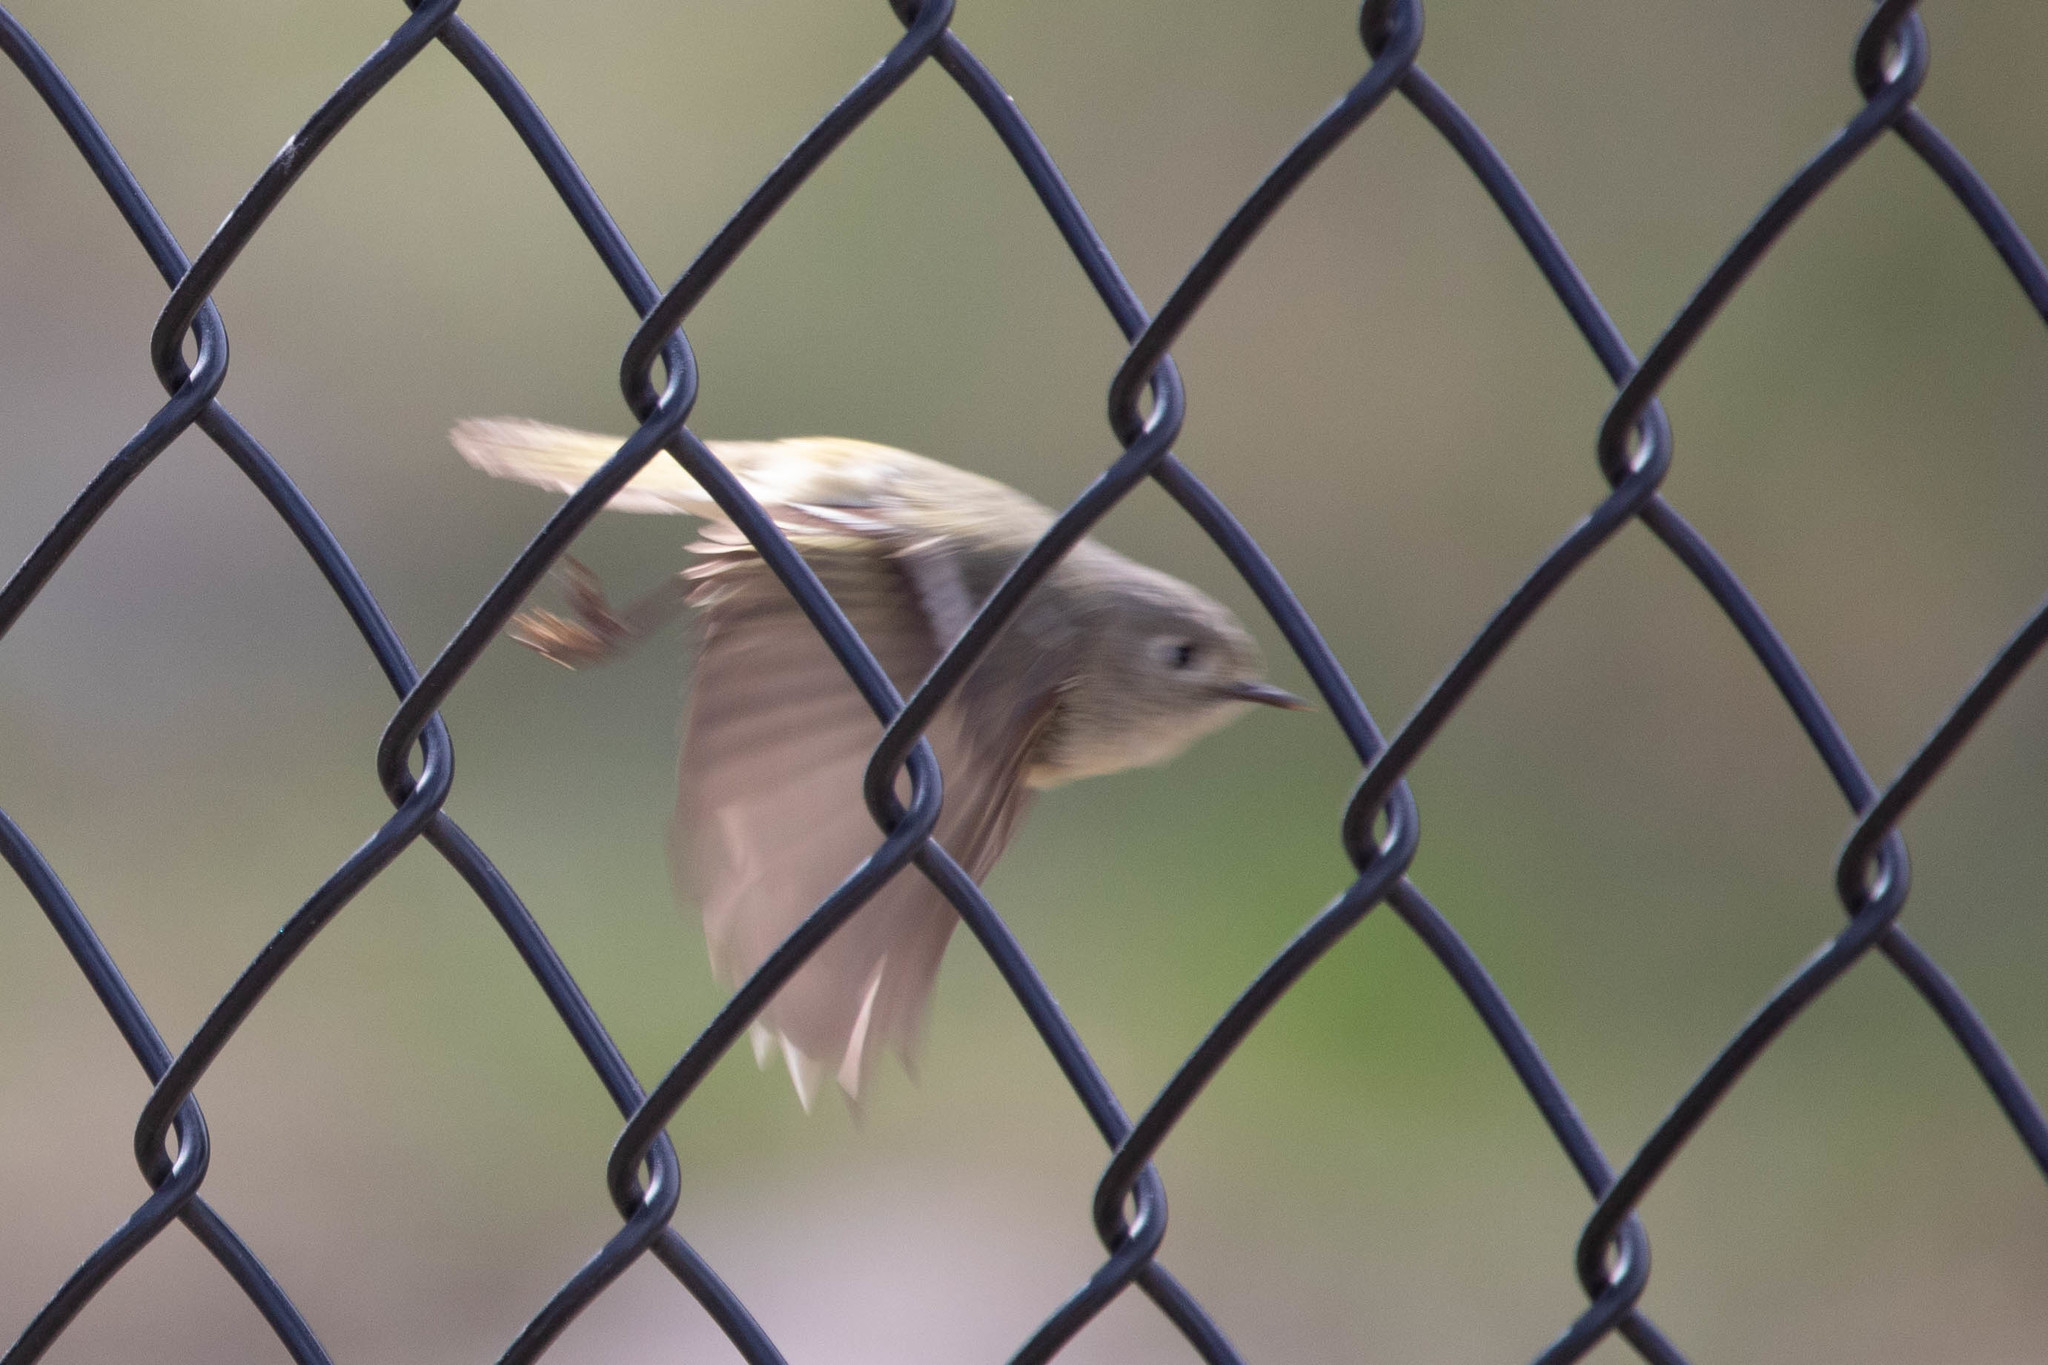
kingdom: Animalia
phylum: Chordata
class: Aves
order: Passeriformes
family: Regulidae
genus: Regulus
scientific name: Regulus calendula
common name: Ruby-crowned kinglet
